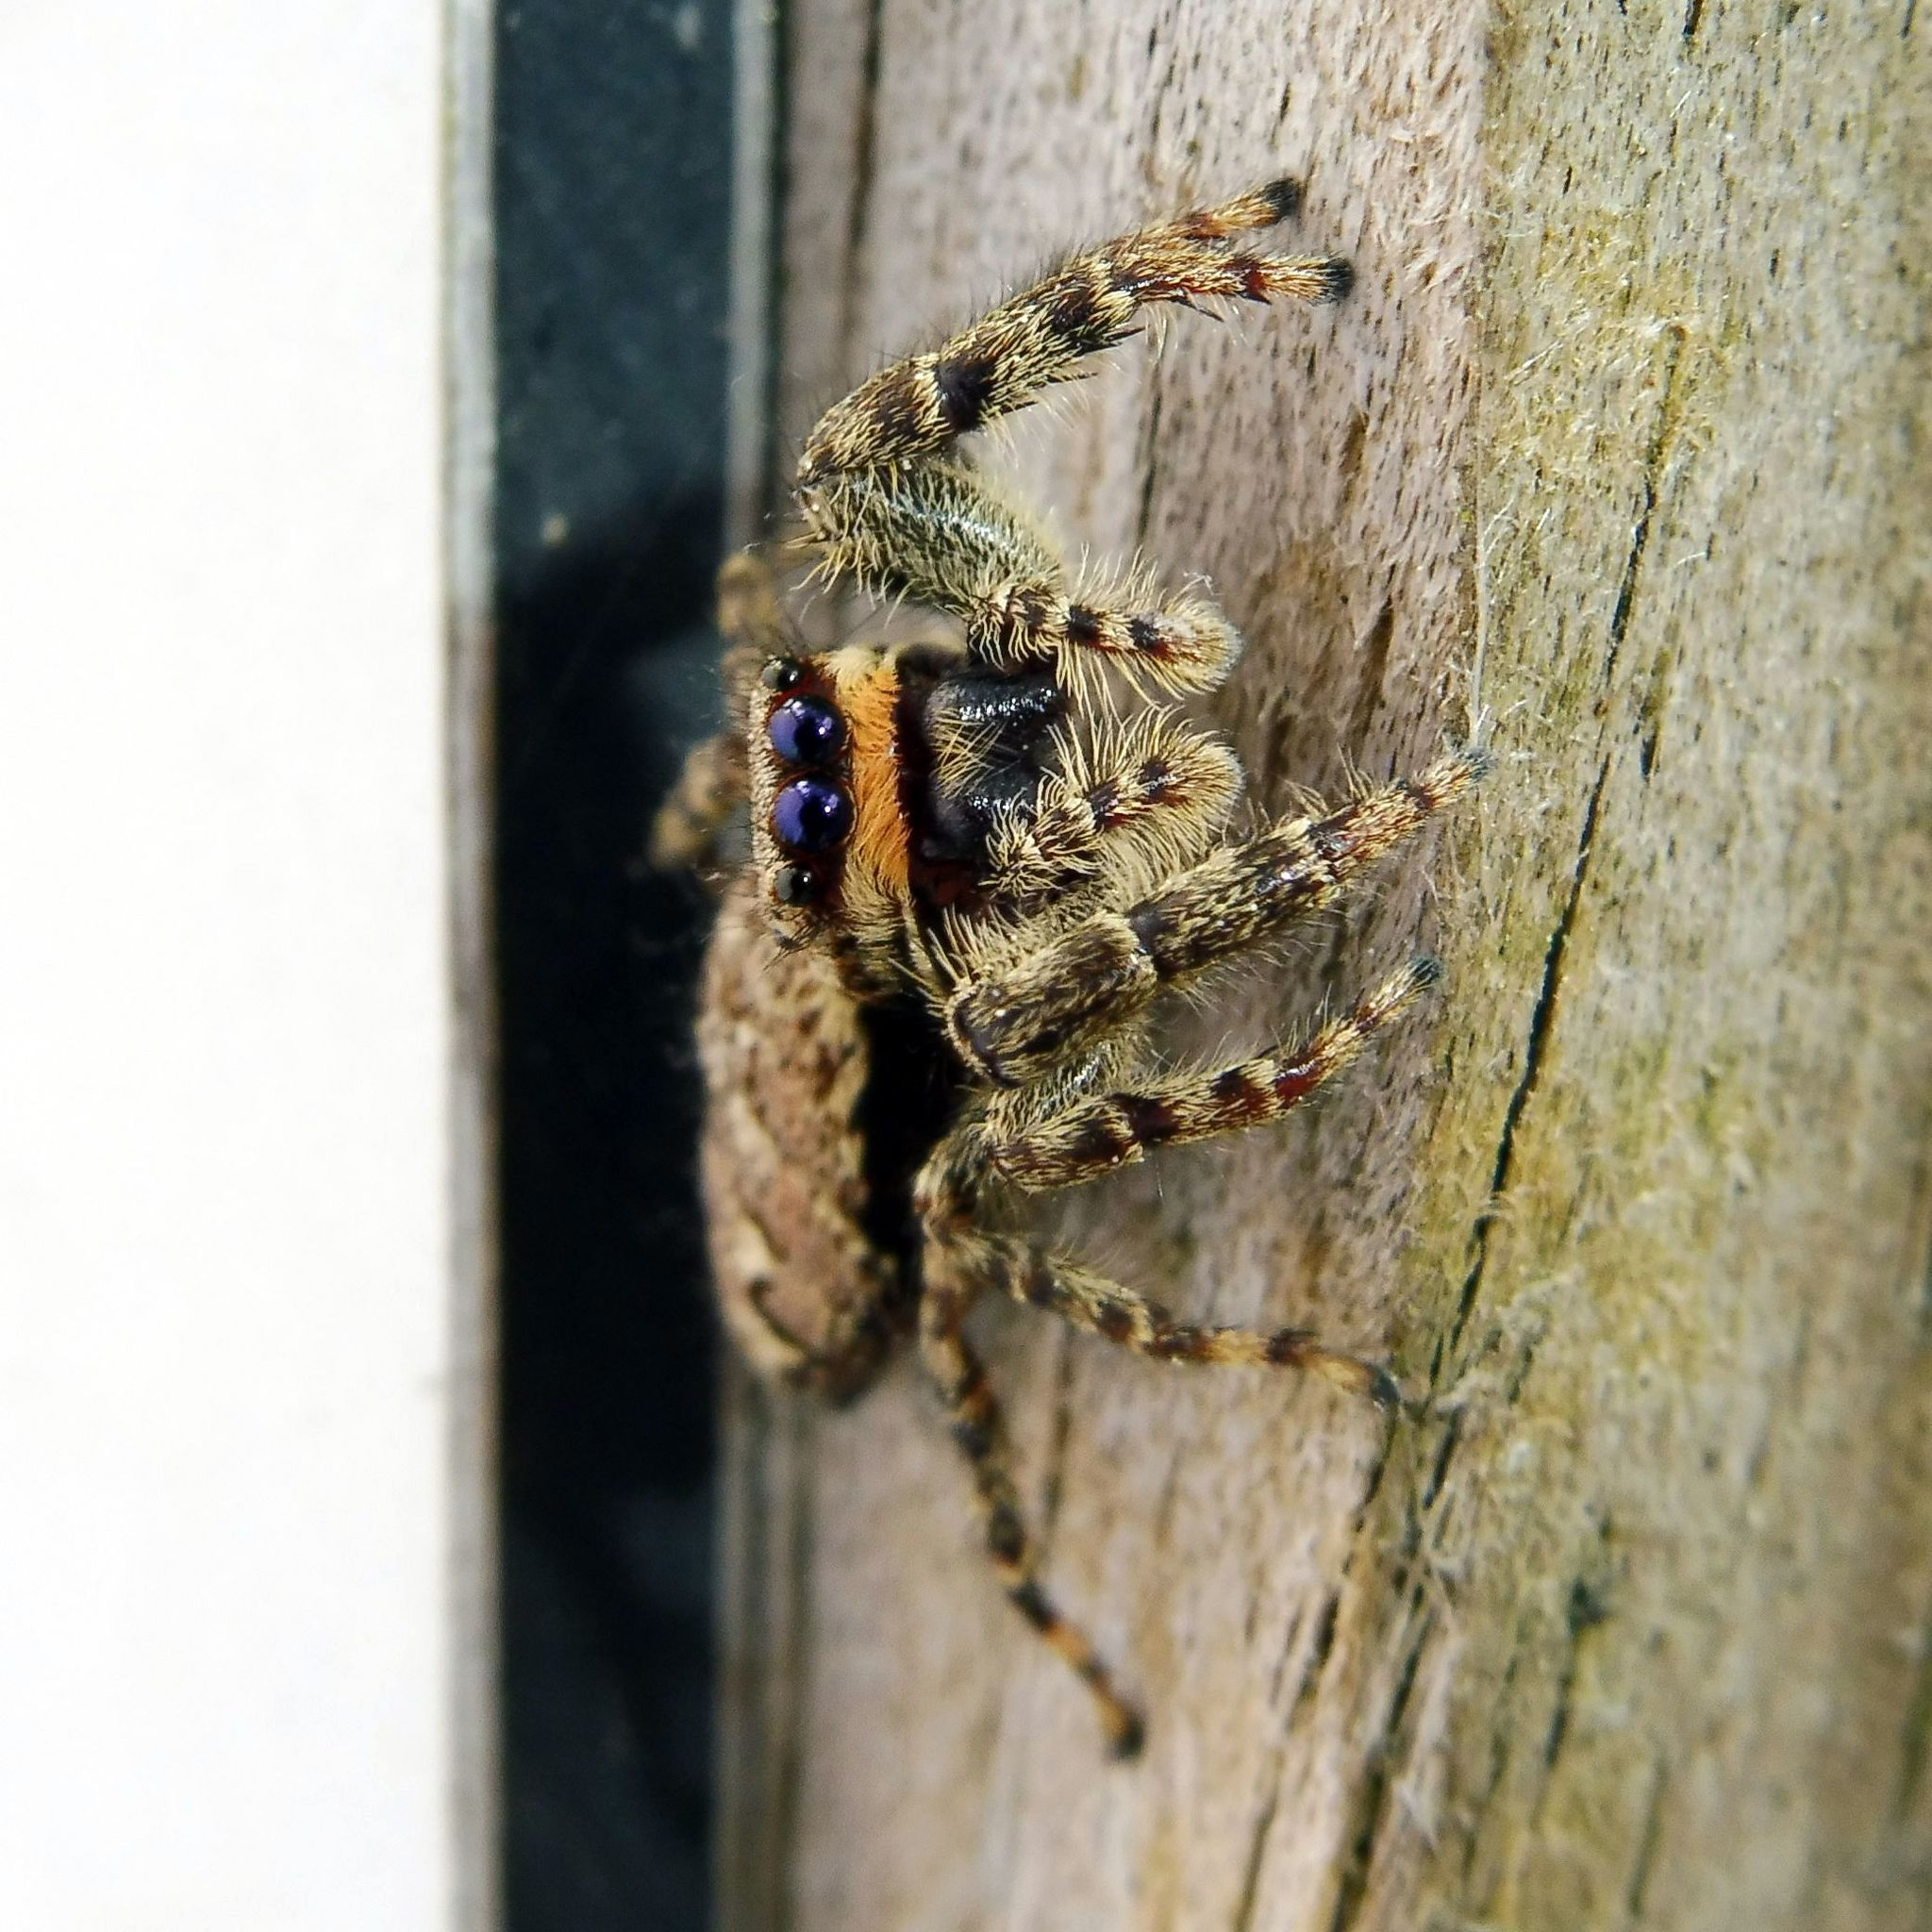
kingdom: Animalia
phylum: Arthropoda
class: Arachnida
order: Araneae
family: Salticidae
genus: Marpissa
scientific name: Marpissa muscosa
